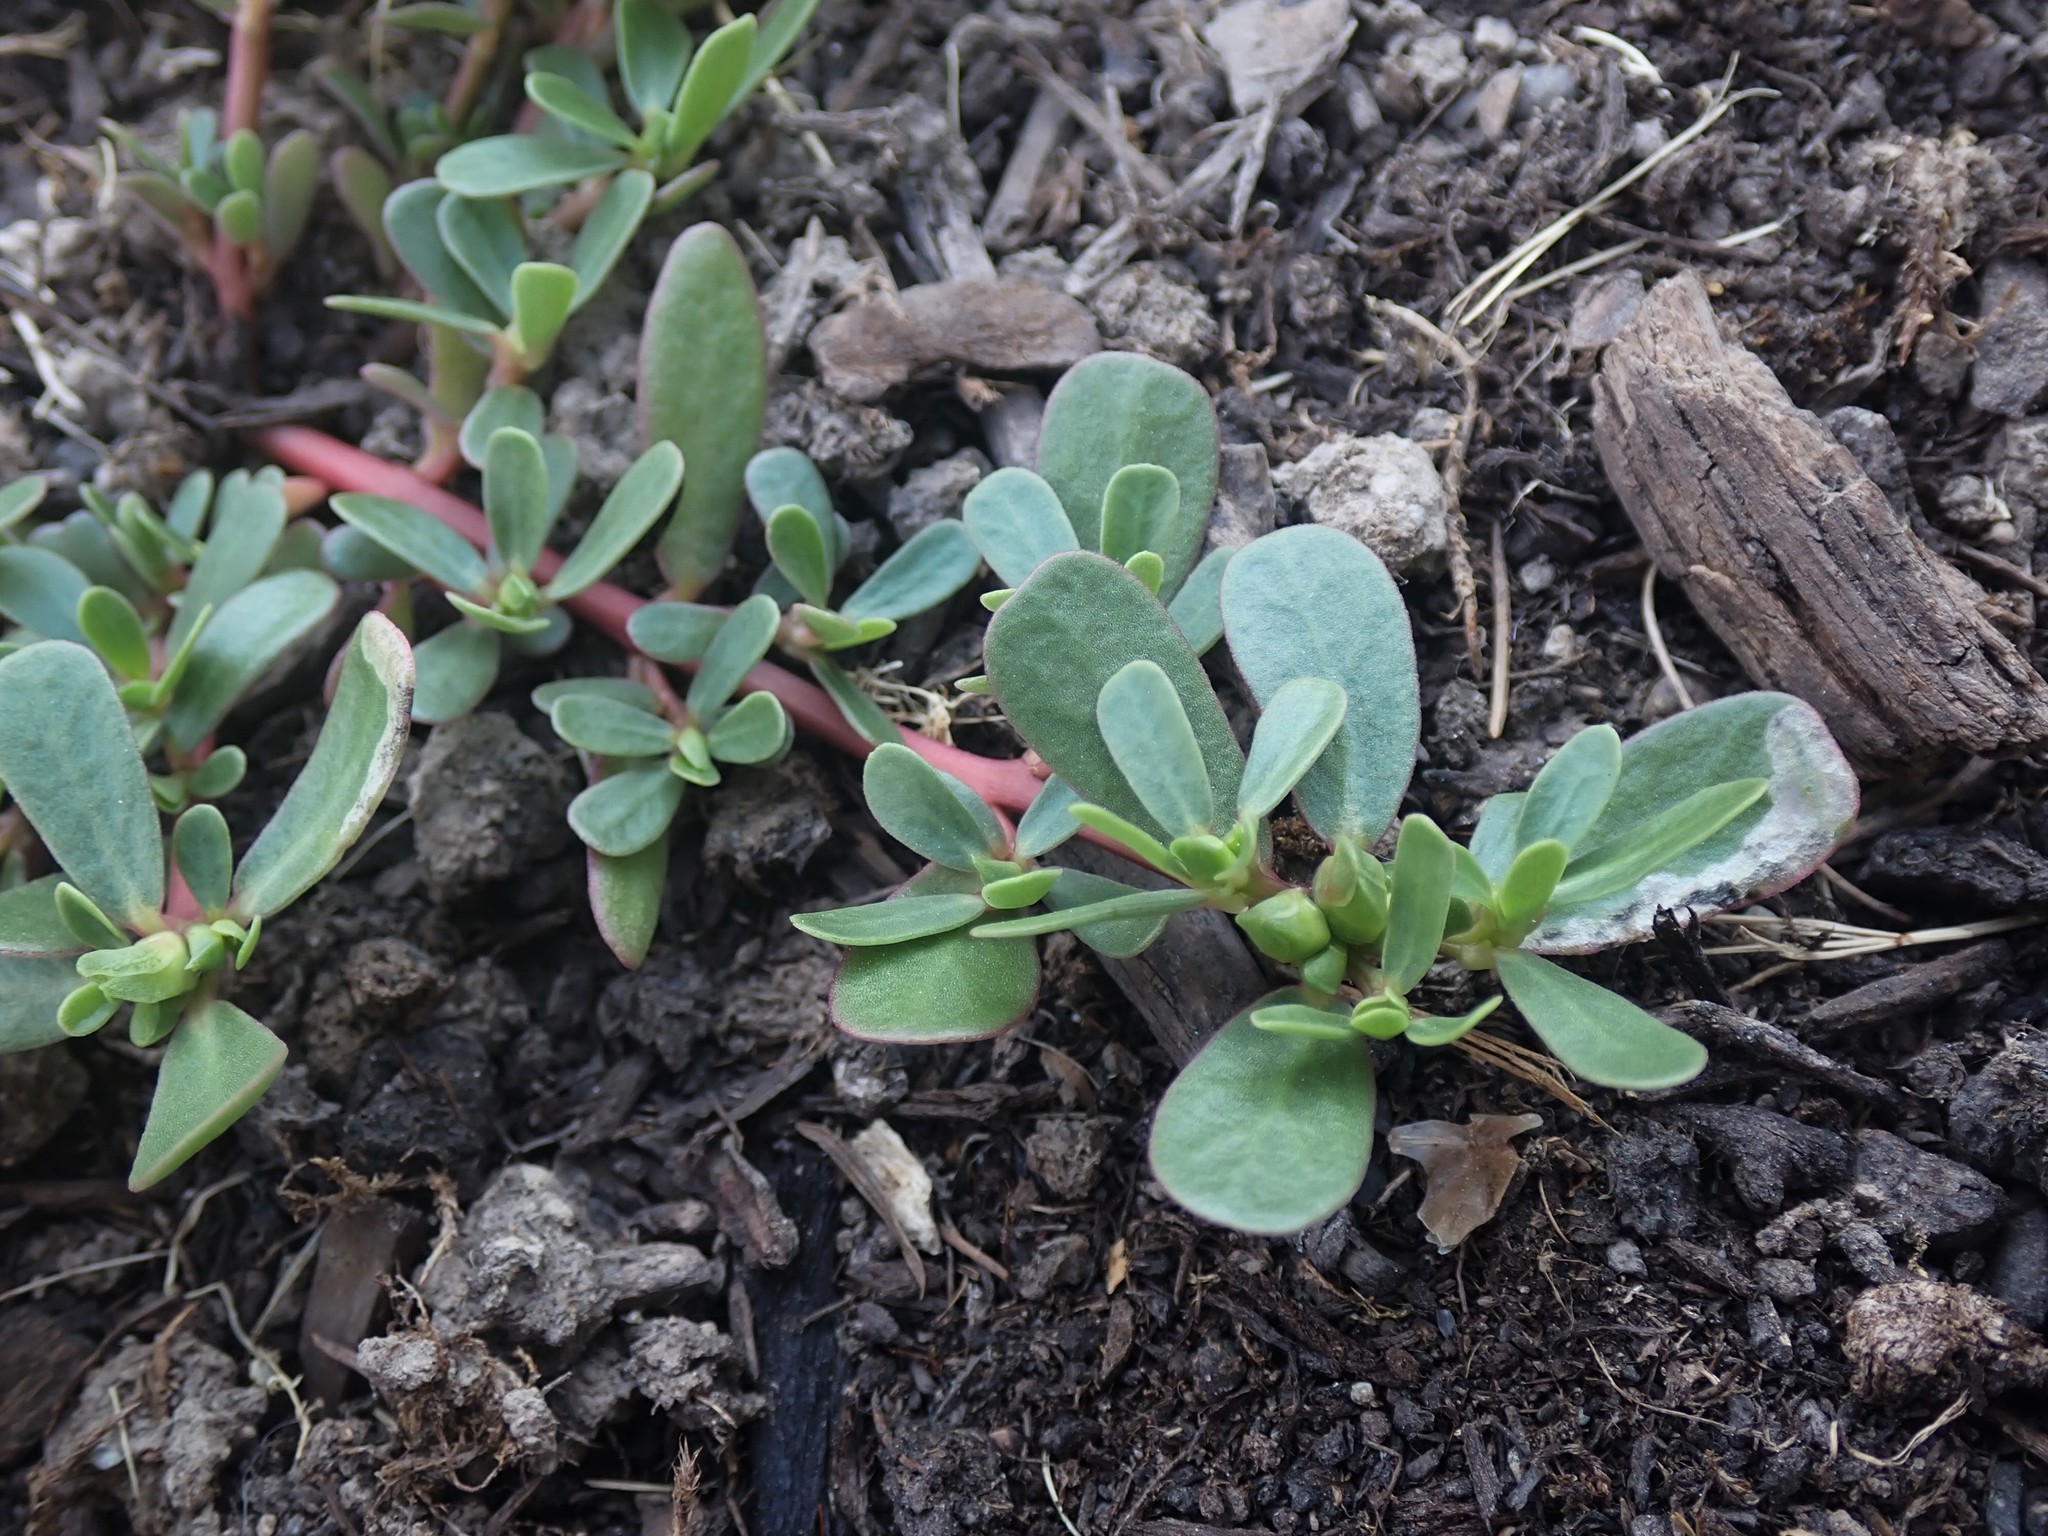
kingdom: Plantae
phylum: Tracheophyta
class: Magnoliopsida
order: Caryophyllales
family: Portulacaceae
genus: Portulaca
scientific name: Portulaca oleracea
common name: Common purslane
